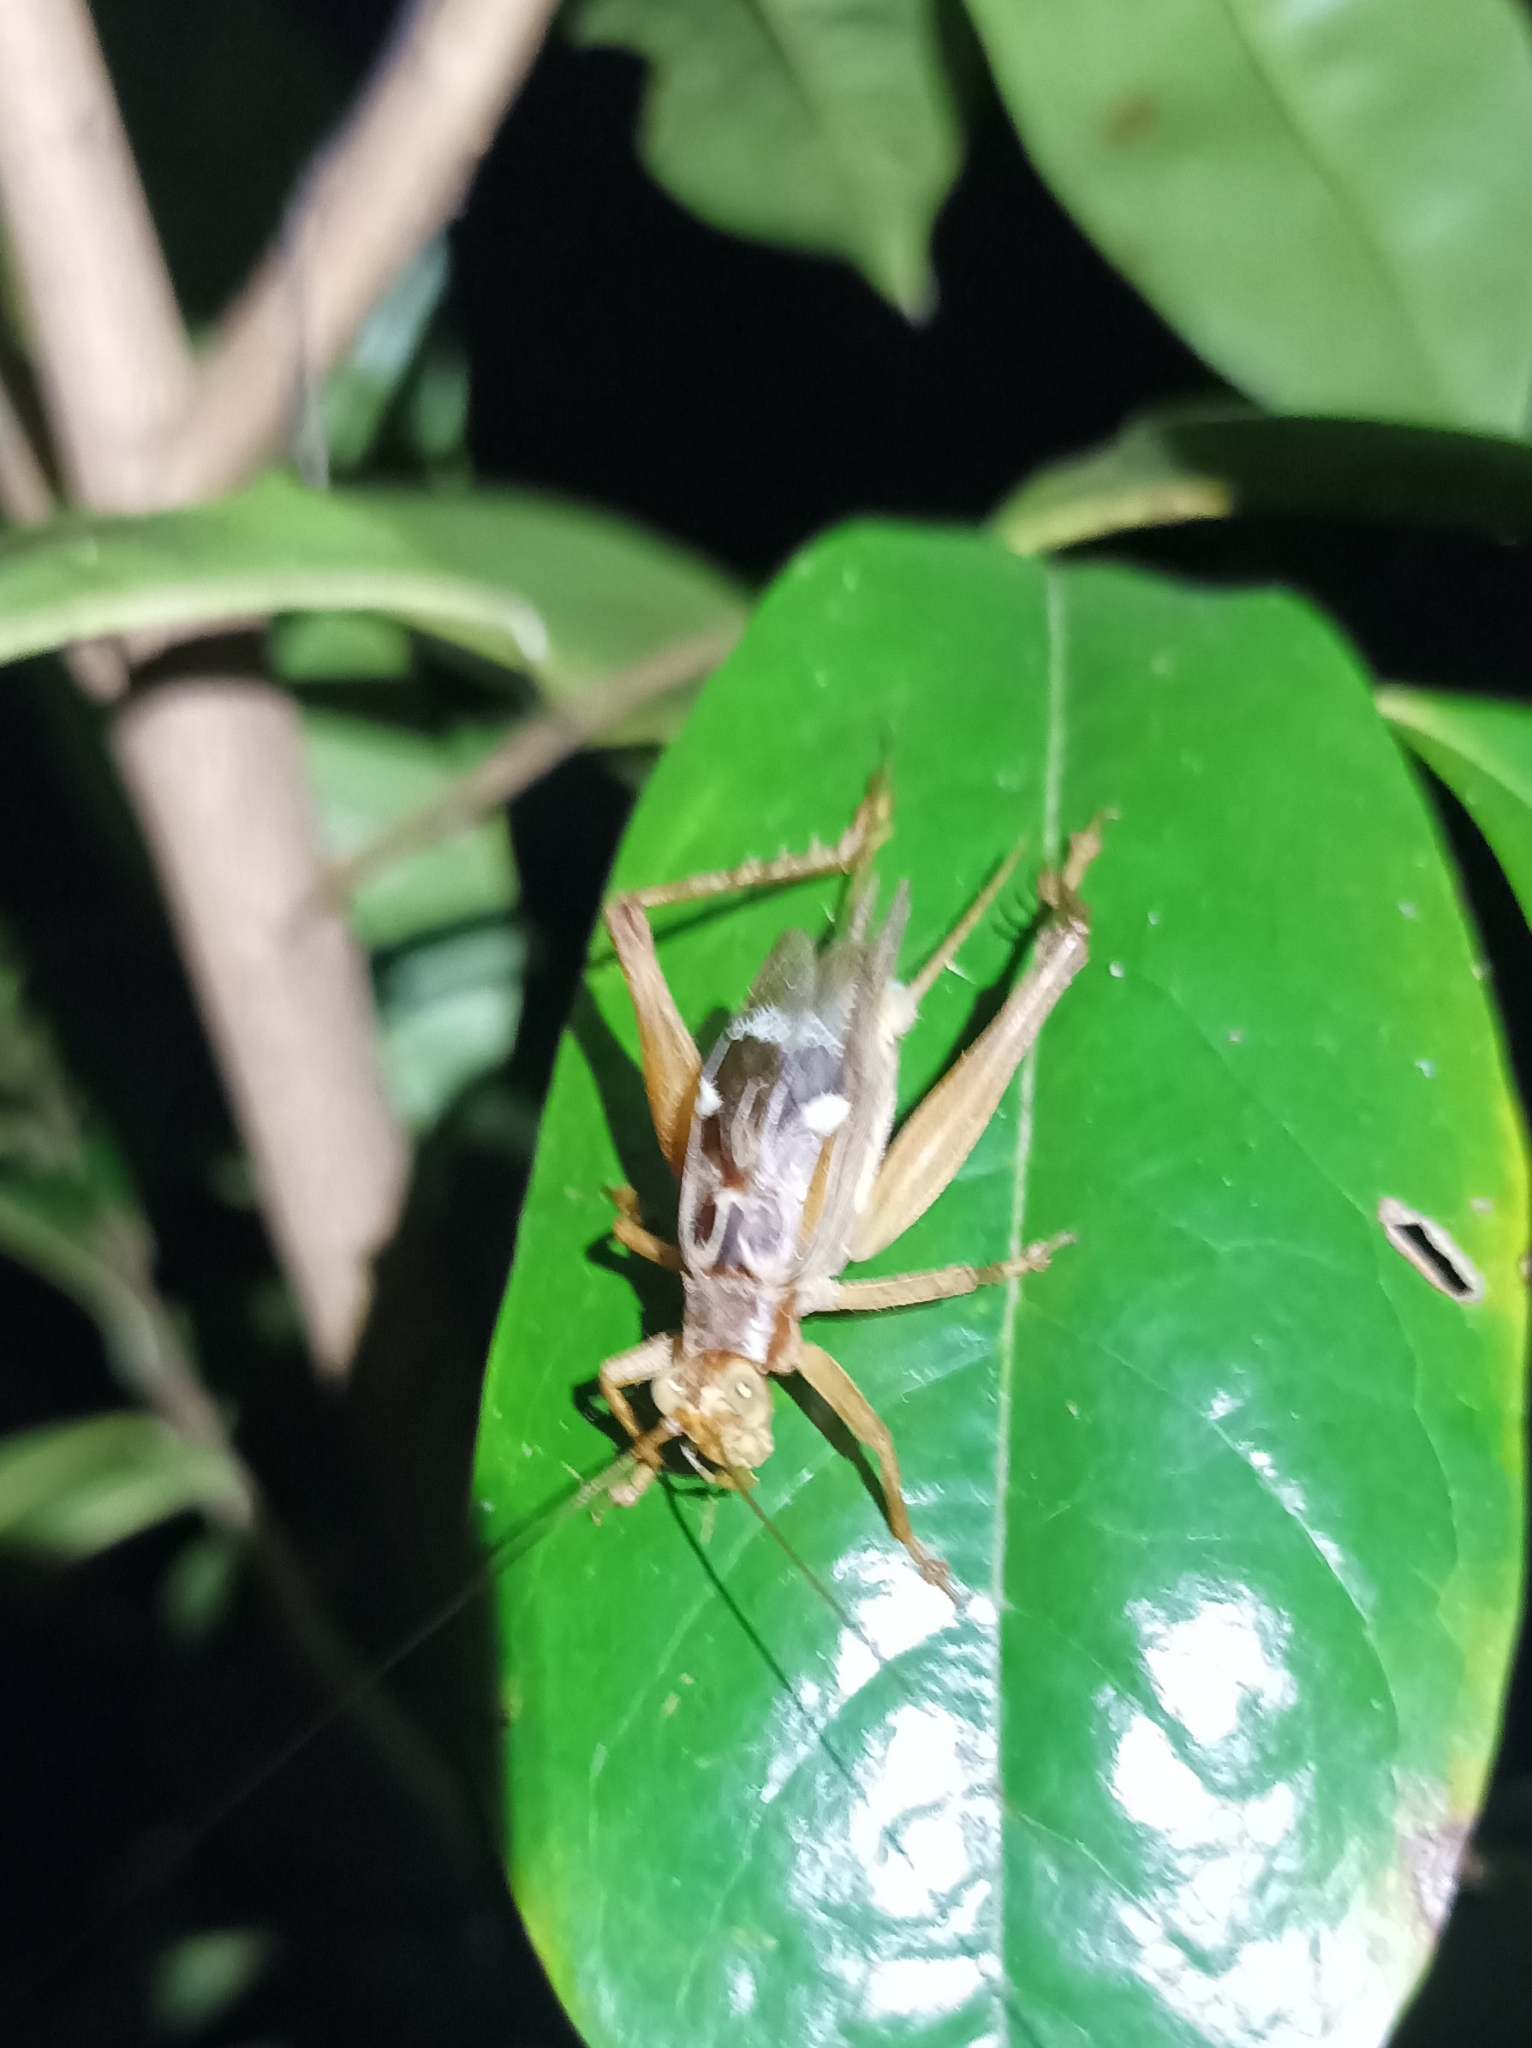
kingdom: Animalia
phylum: Arthropoda
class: Insecta
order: Orthoptera
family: Gryllidae
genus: Cardiodactylus
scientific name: Cardiodactylus novaeguineae
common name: Sad cricket
